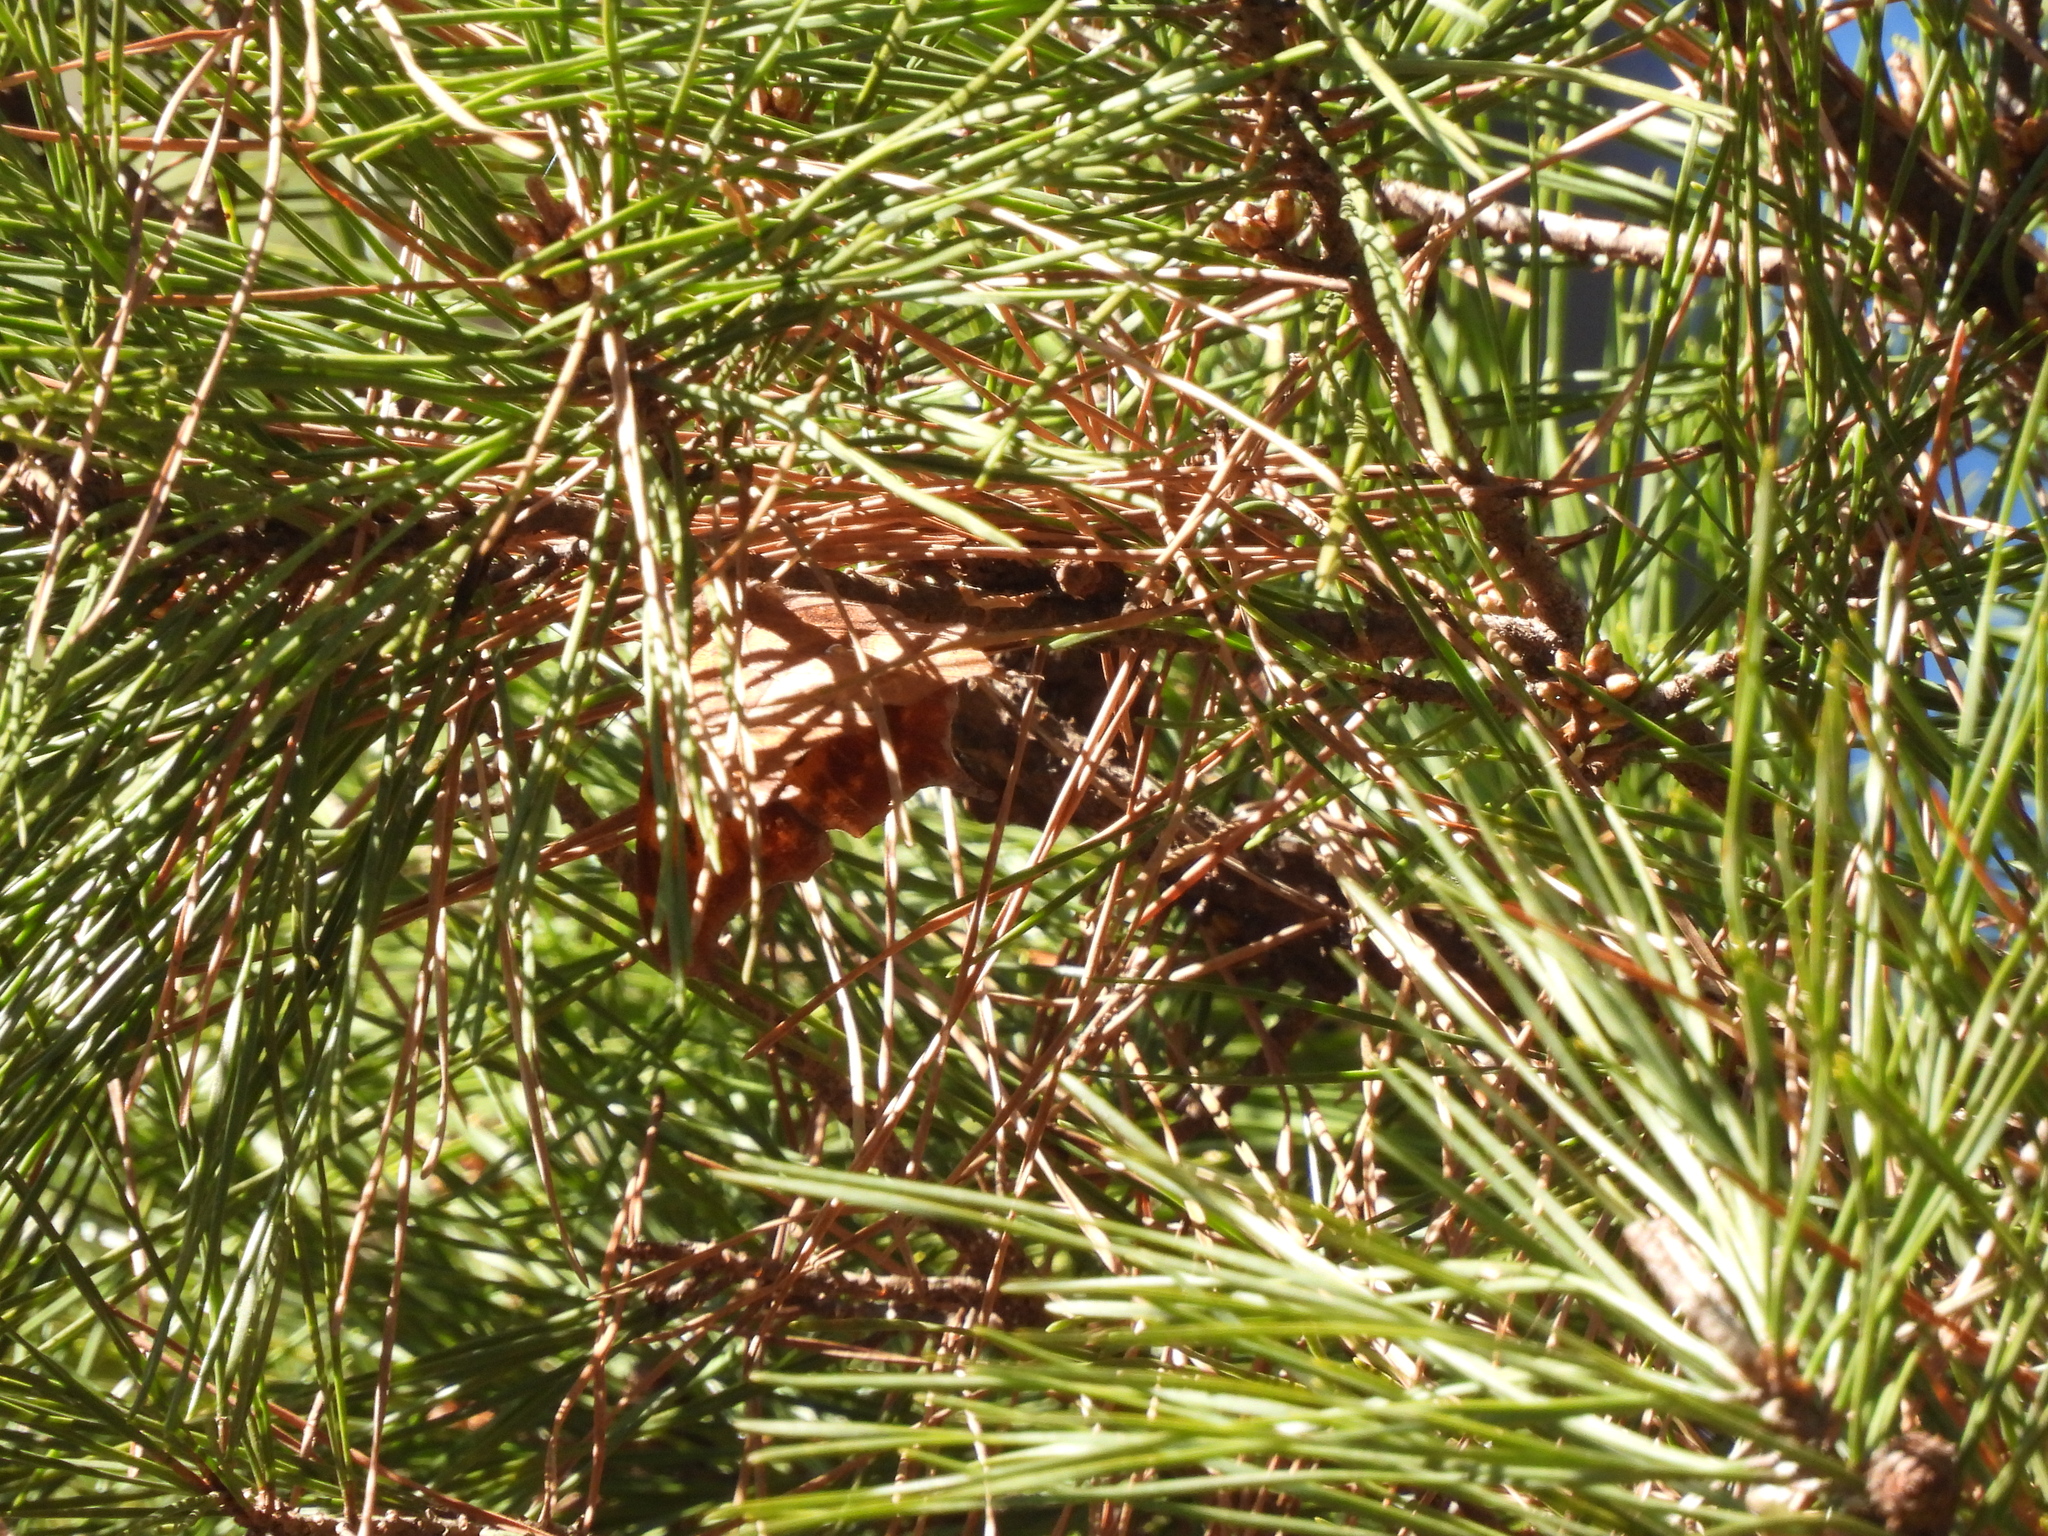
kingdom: Animalia
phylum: Arthropoda
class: Insecta
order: Lepidoptera
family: Nymphalidae
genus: Polygonia
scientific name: Polygonia interrogationis
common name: Question mark
